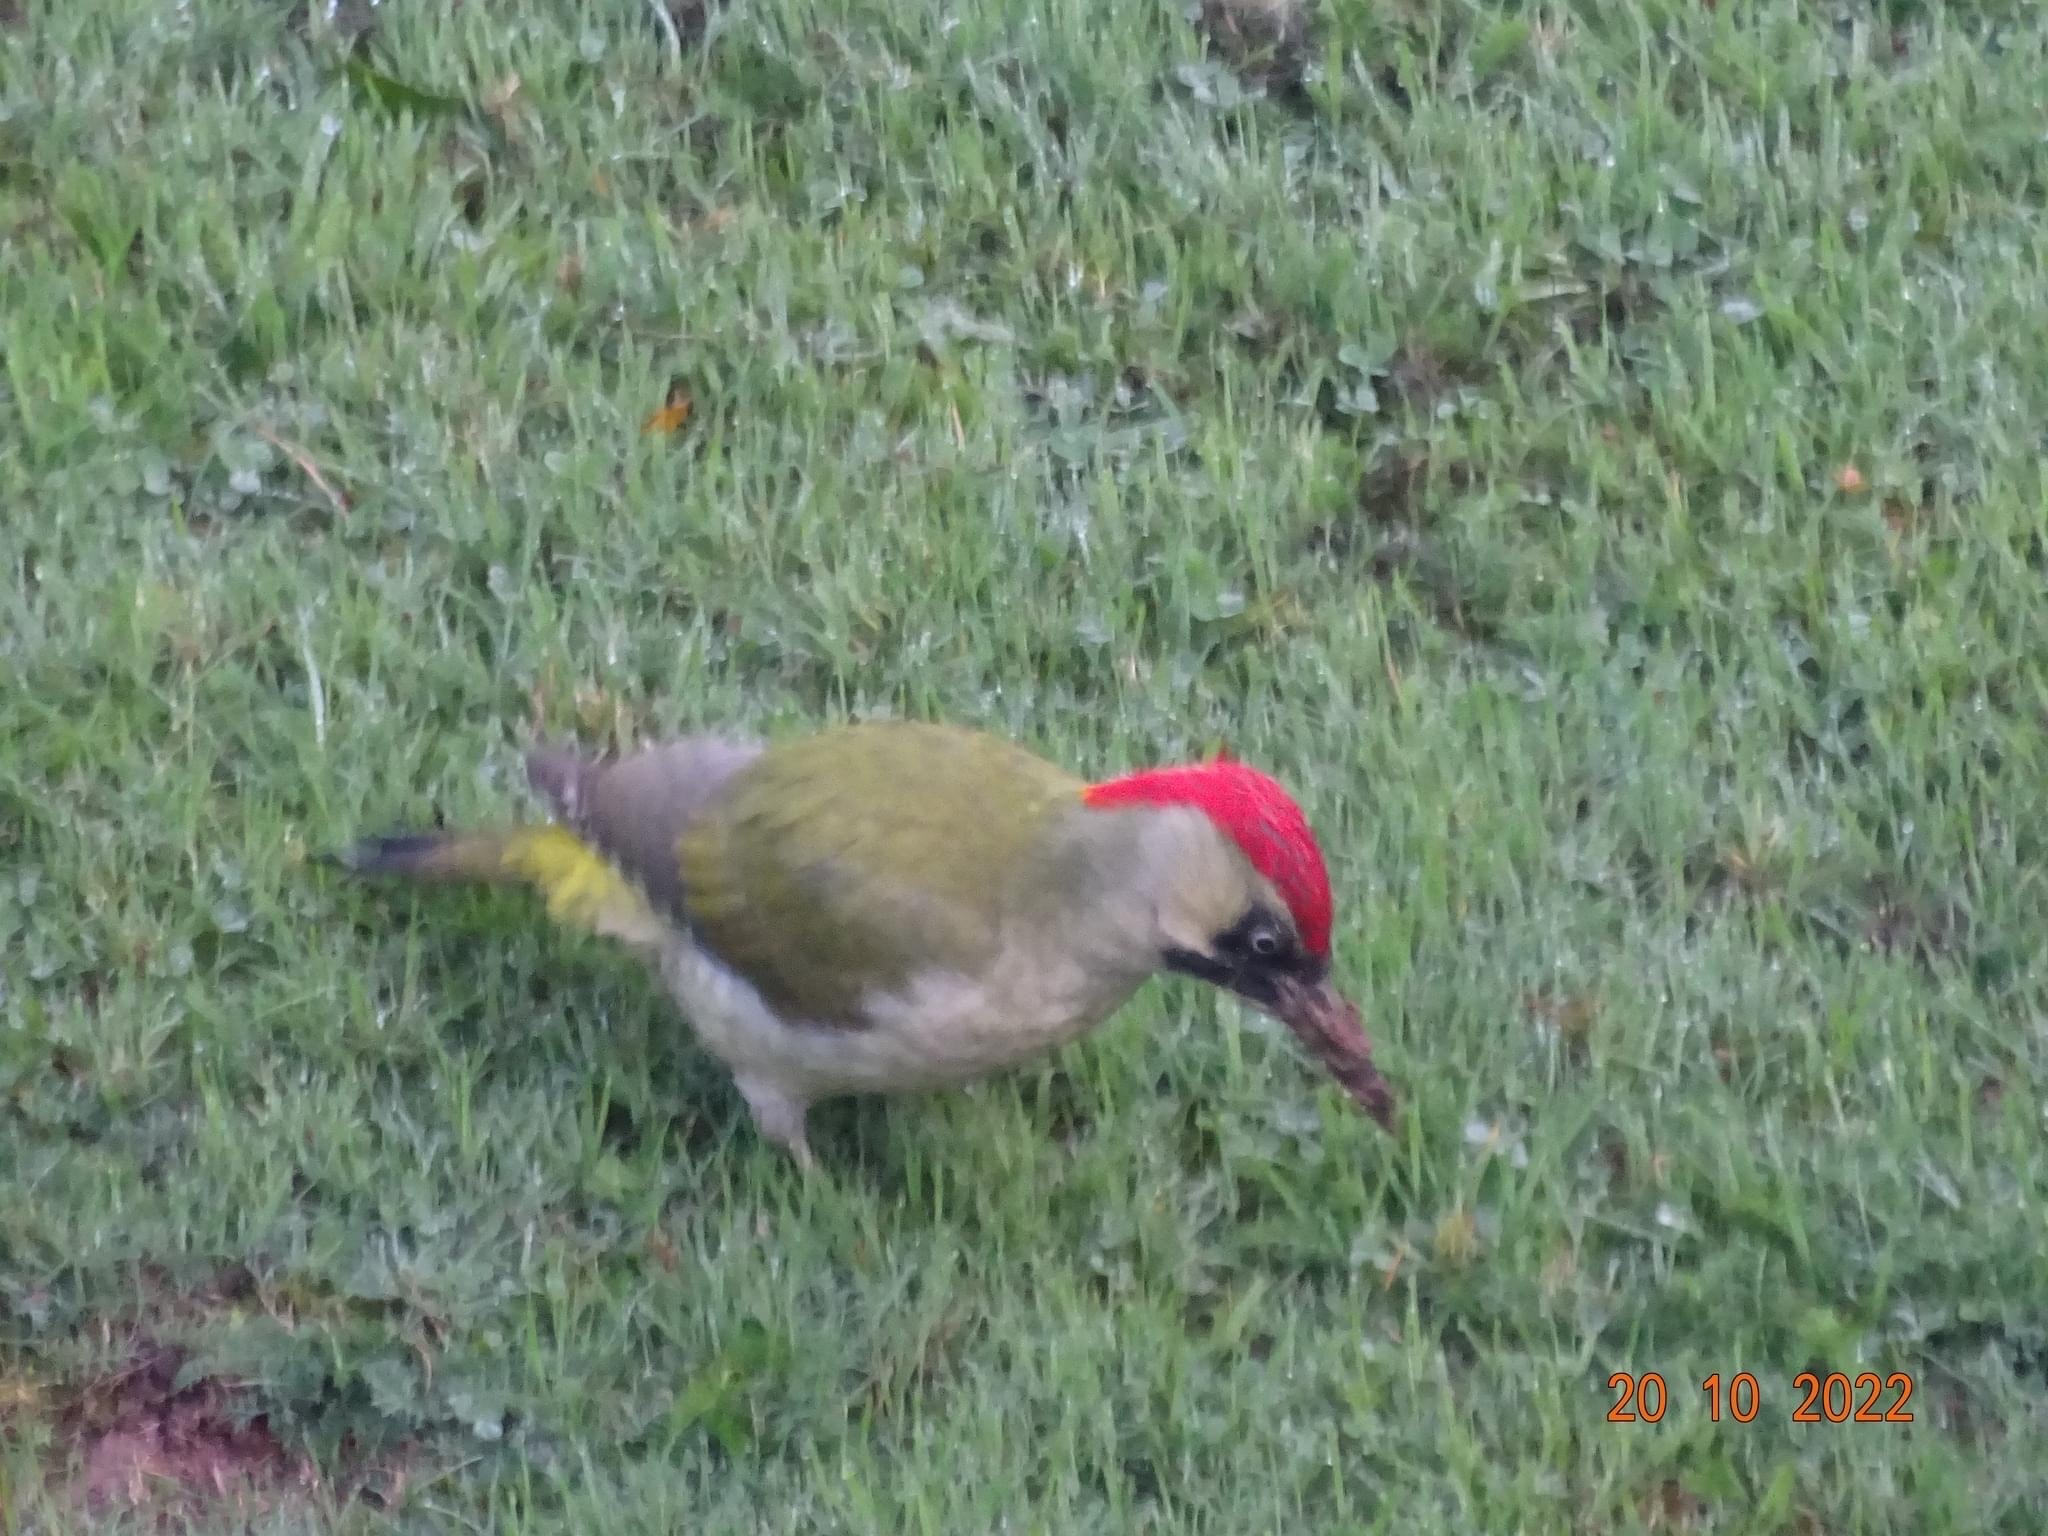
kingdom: Animalia
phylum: Chordata
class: Aves
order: Piciformes
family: Picidae
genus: Picus
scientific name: Picus viridis
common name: European green woodpecker
